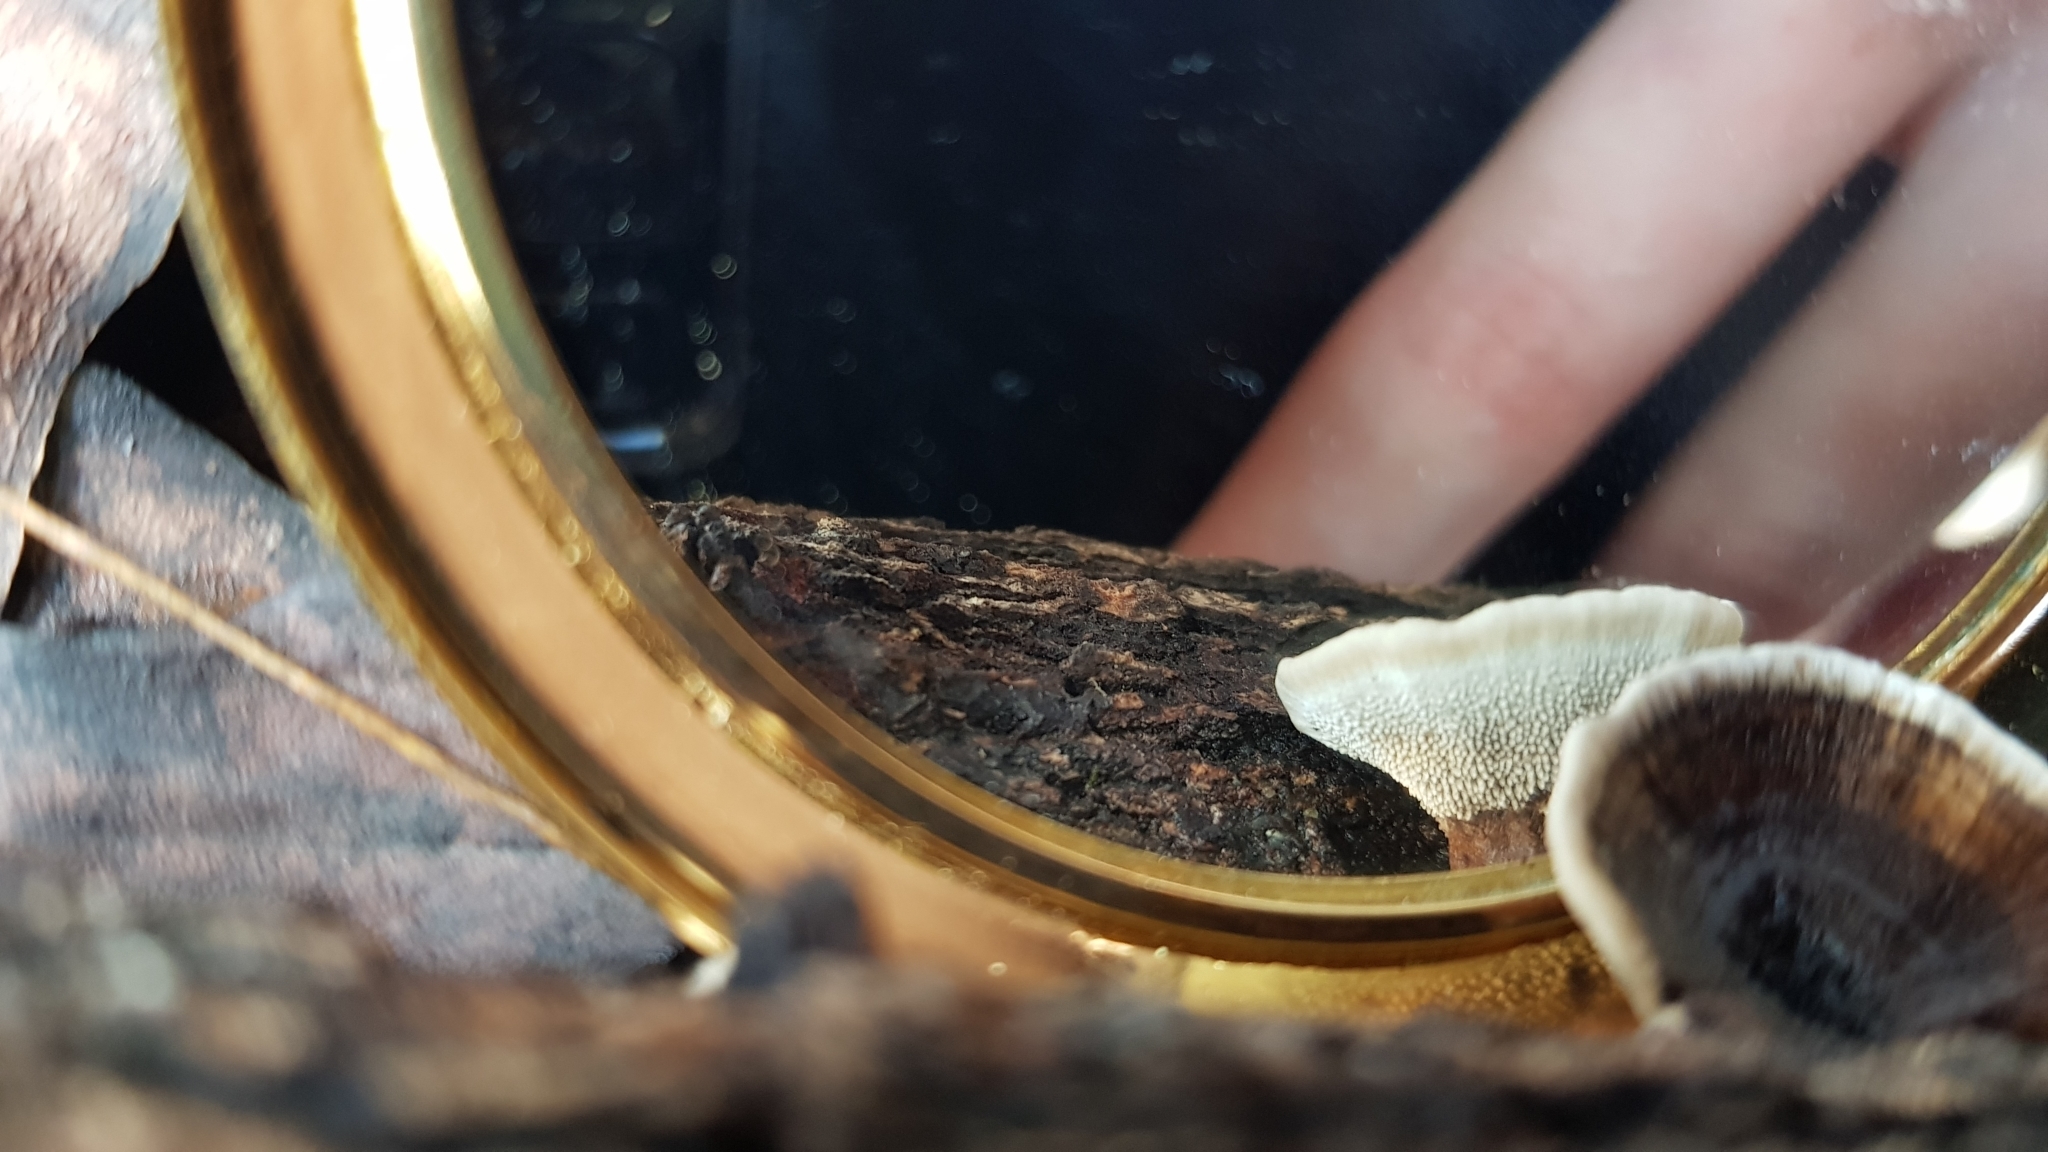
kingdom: Fungi
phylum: Basidiomycota
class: Agaricomycetes
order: Thelephorales
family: Bankeraceae
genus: Hydnellum
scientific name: Hydnellum auratile
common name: Gold tooth
